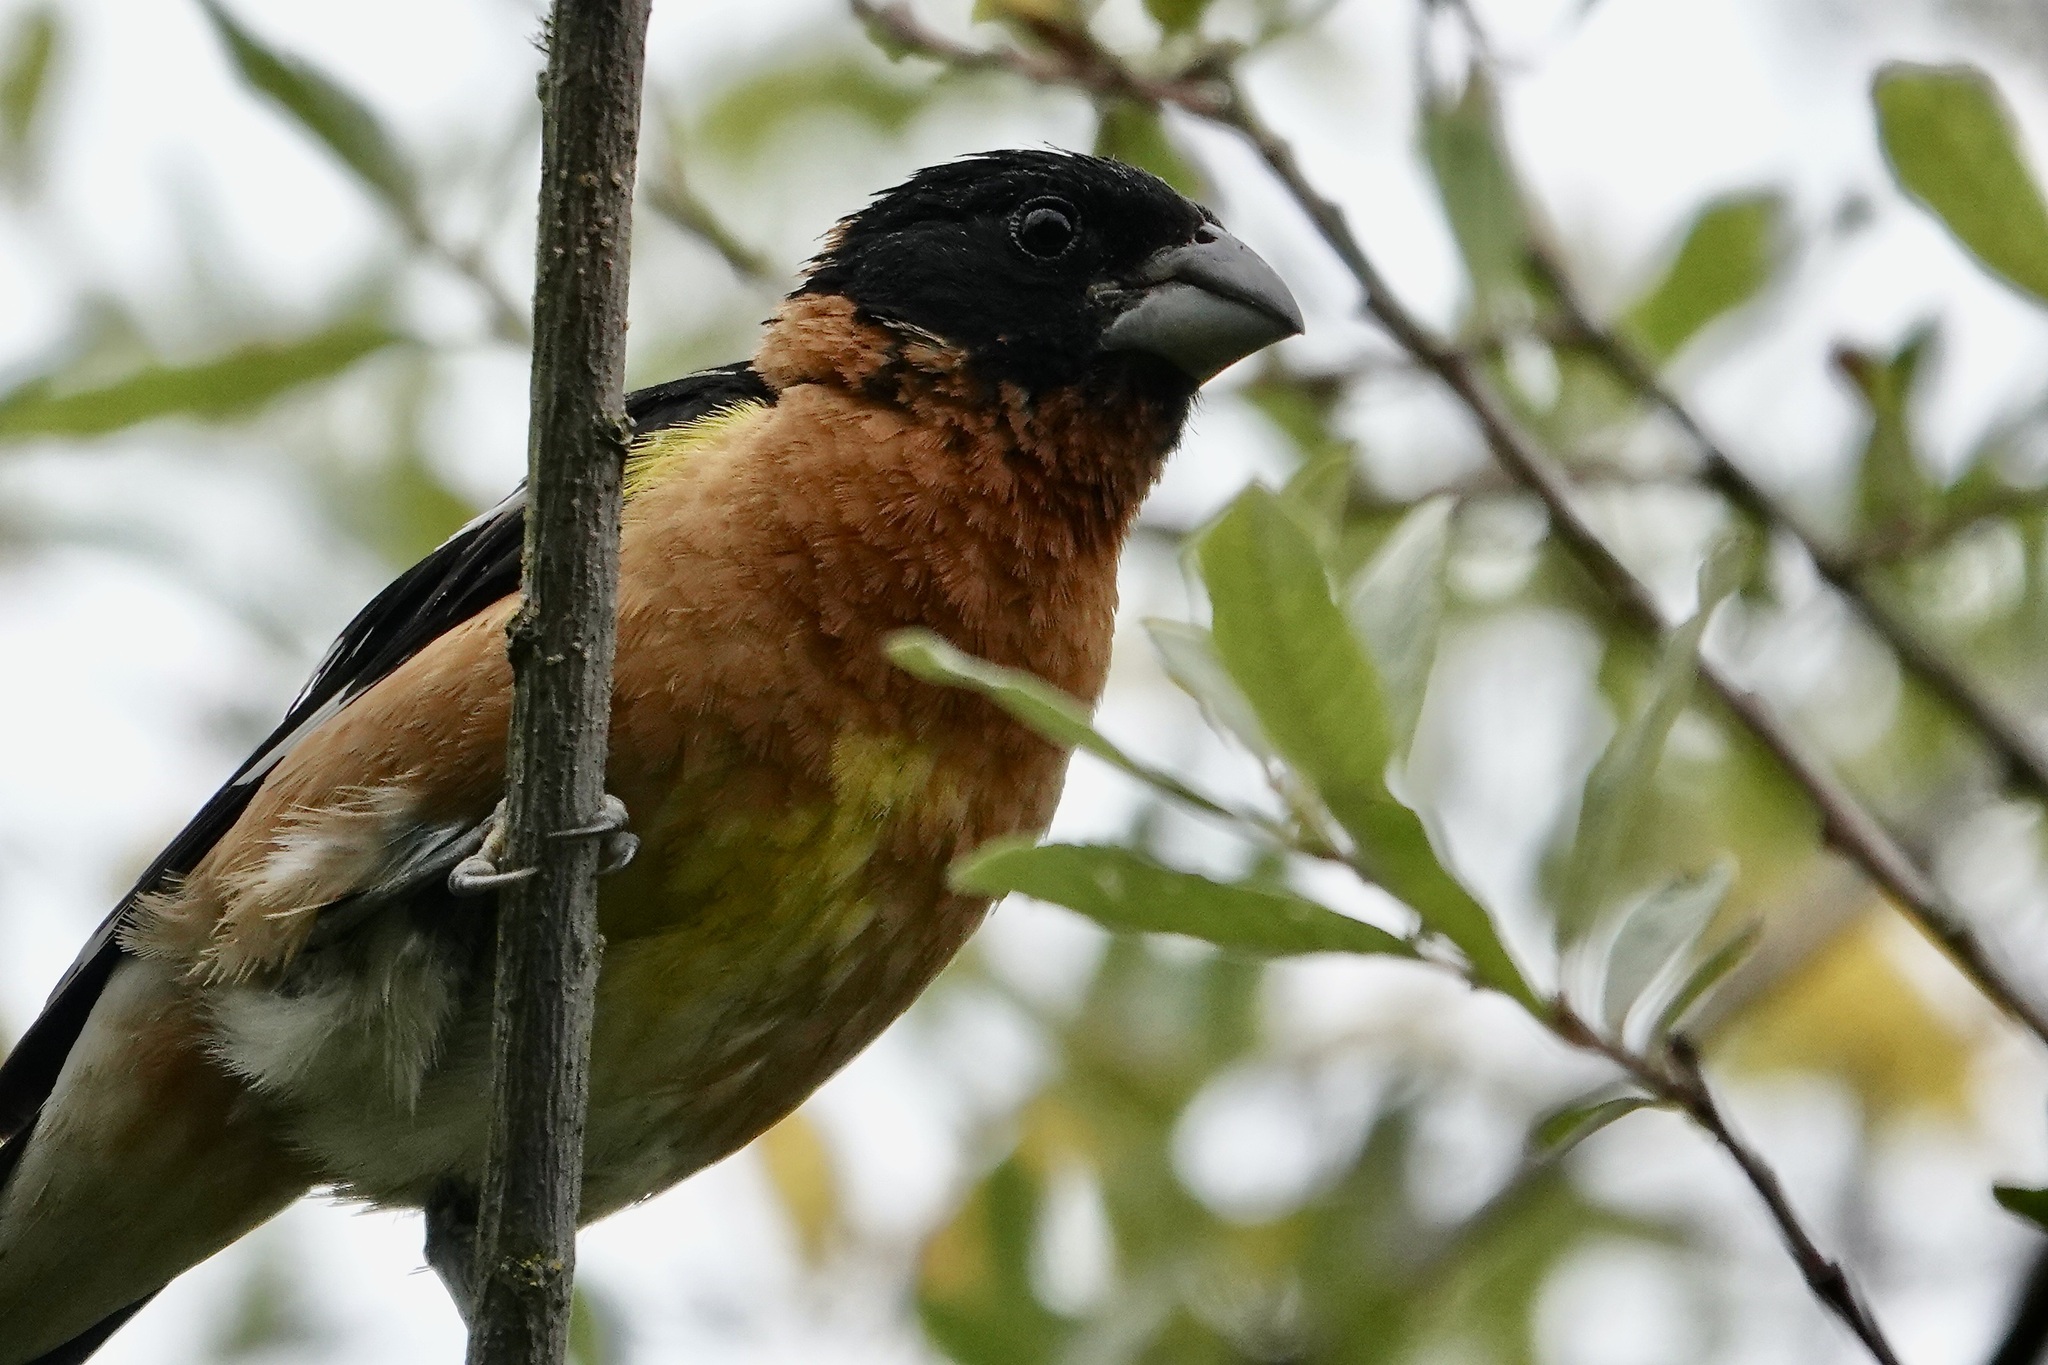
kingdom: Animalia
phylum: Chordata
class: Aves
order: Passeriformes
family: Cardinalidae
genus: Pheucticus
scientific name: Pheucticus melanocephalus
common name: Black-headed grosbeak
